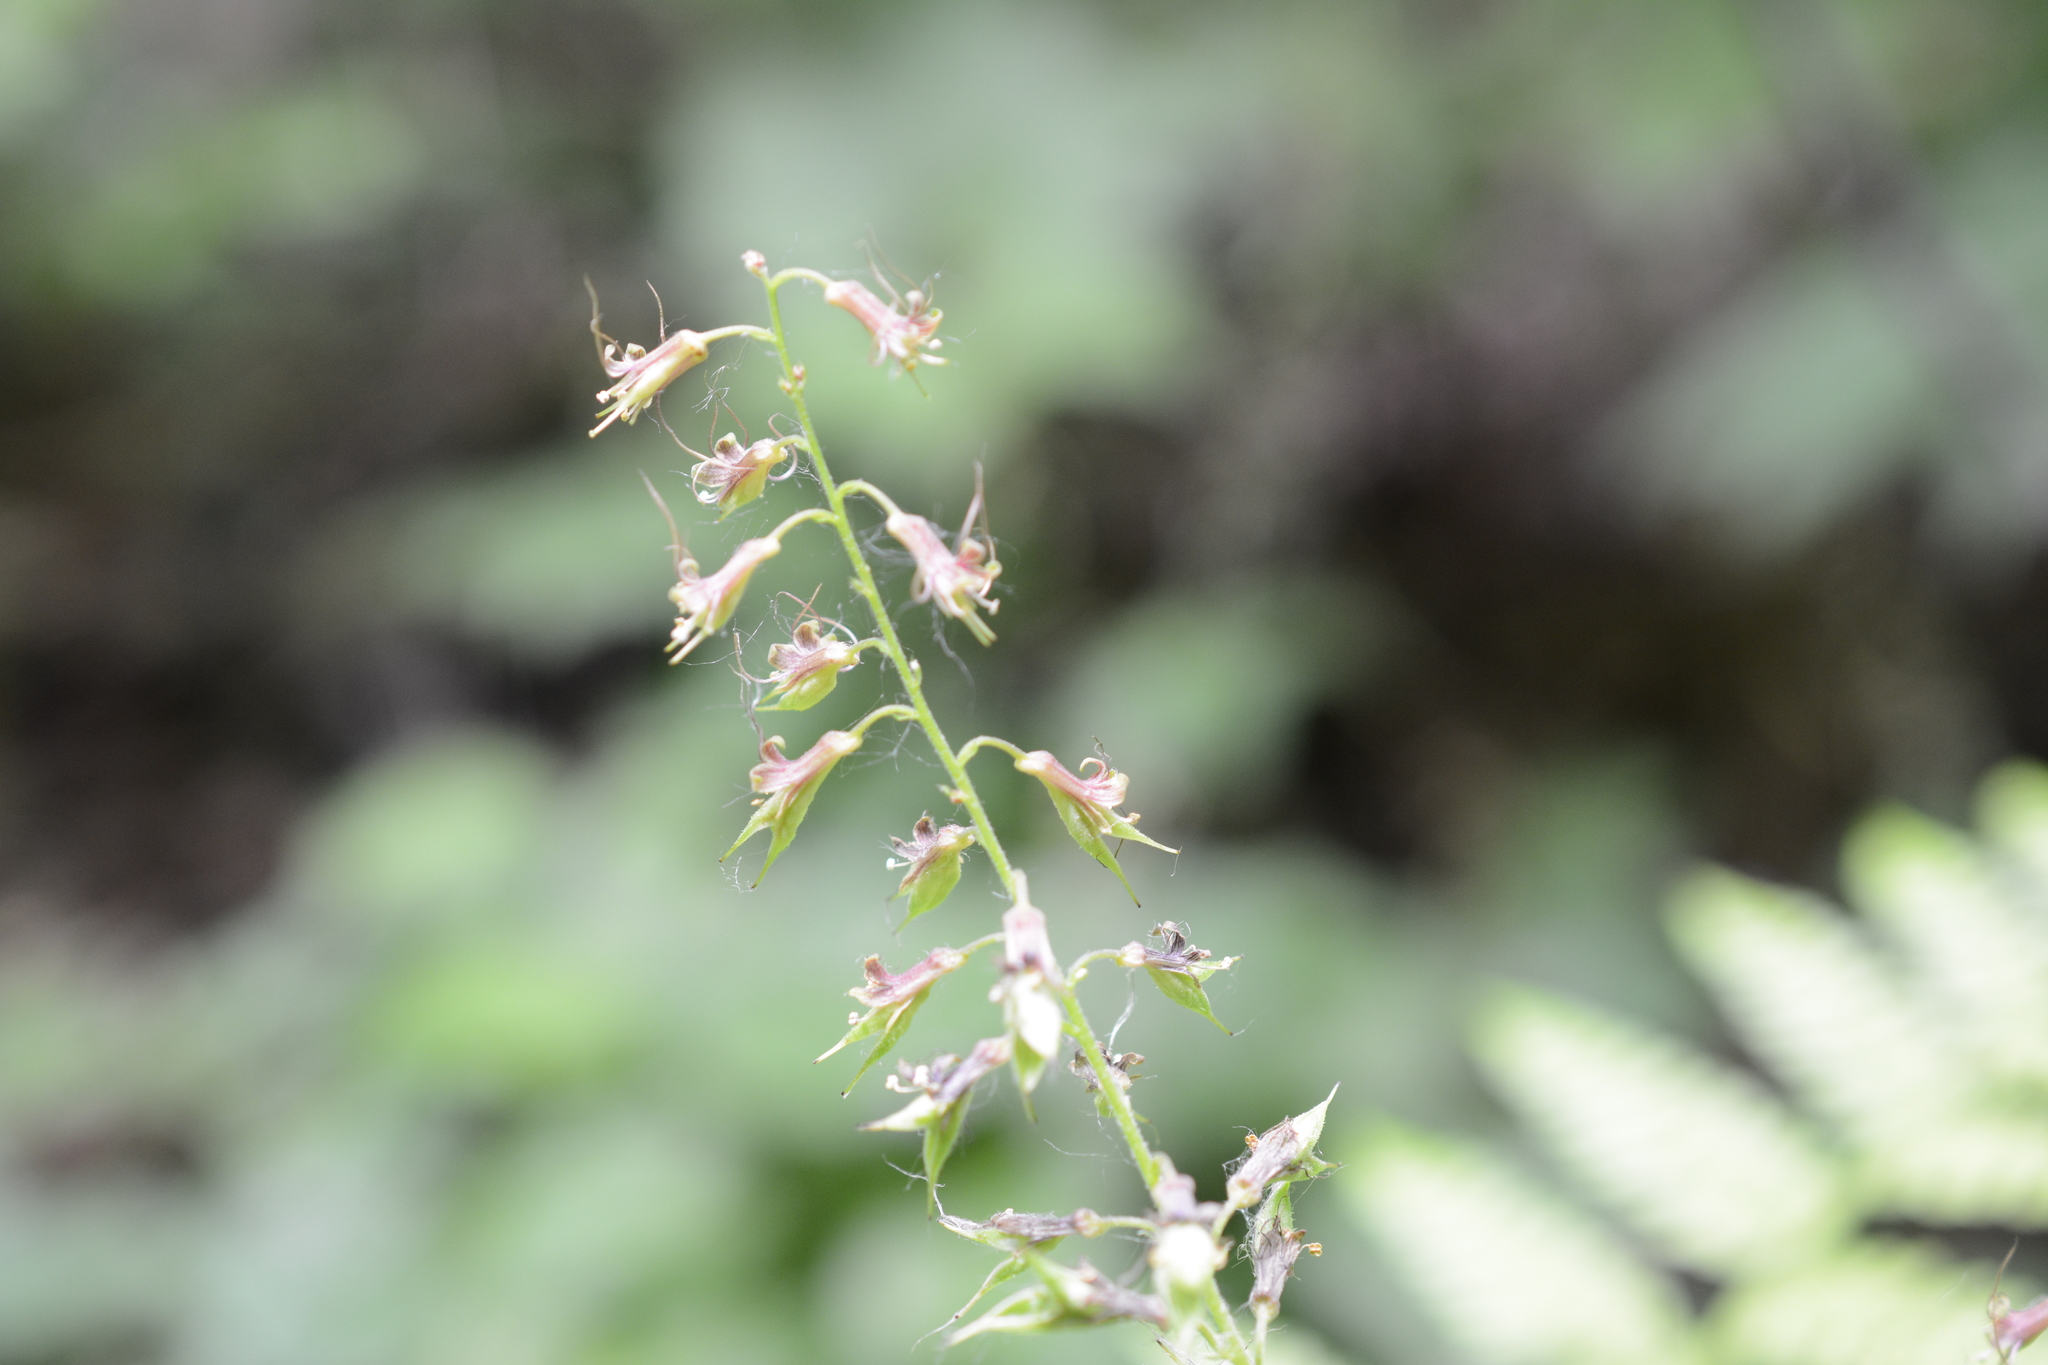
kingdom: Plantae
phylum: Tracheophyta
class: Magnoliopsida
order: Saxifragales
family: Saxifragaceae
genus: Tolmiea
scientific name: Tolmiea menziesii
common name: Pick-a-back-plant
